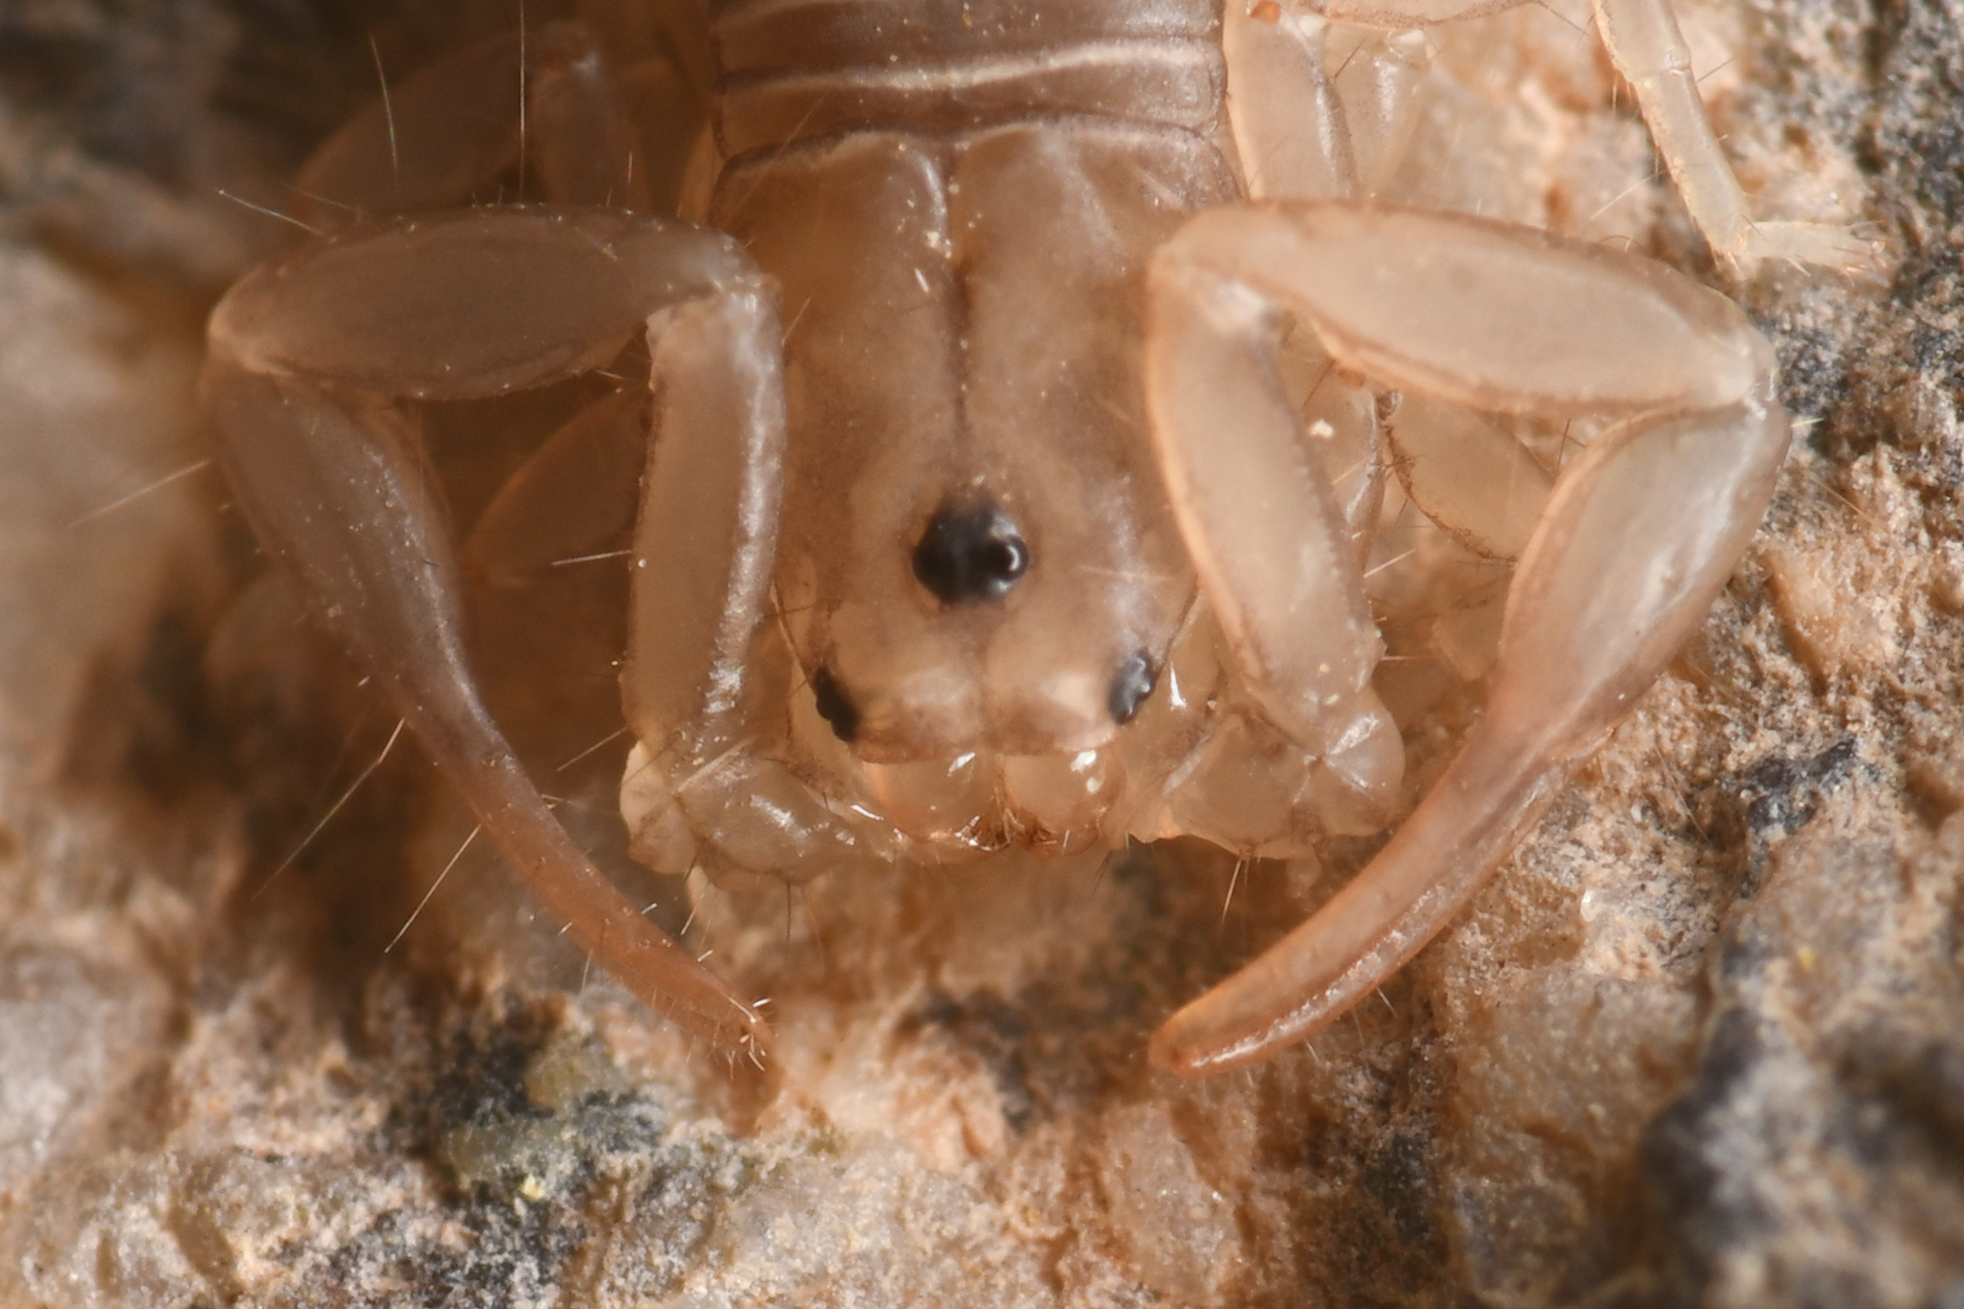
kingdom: Animalia
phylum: Arthropoda
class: Arachnida
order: Scorpiones
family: Vaejovidae
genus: Serradigitus
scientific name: Serradigitus joshuaensis
